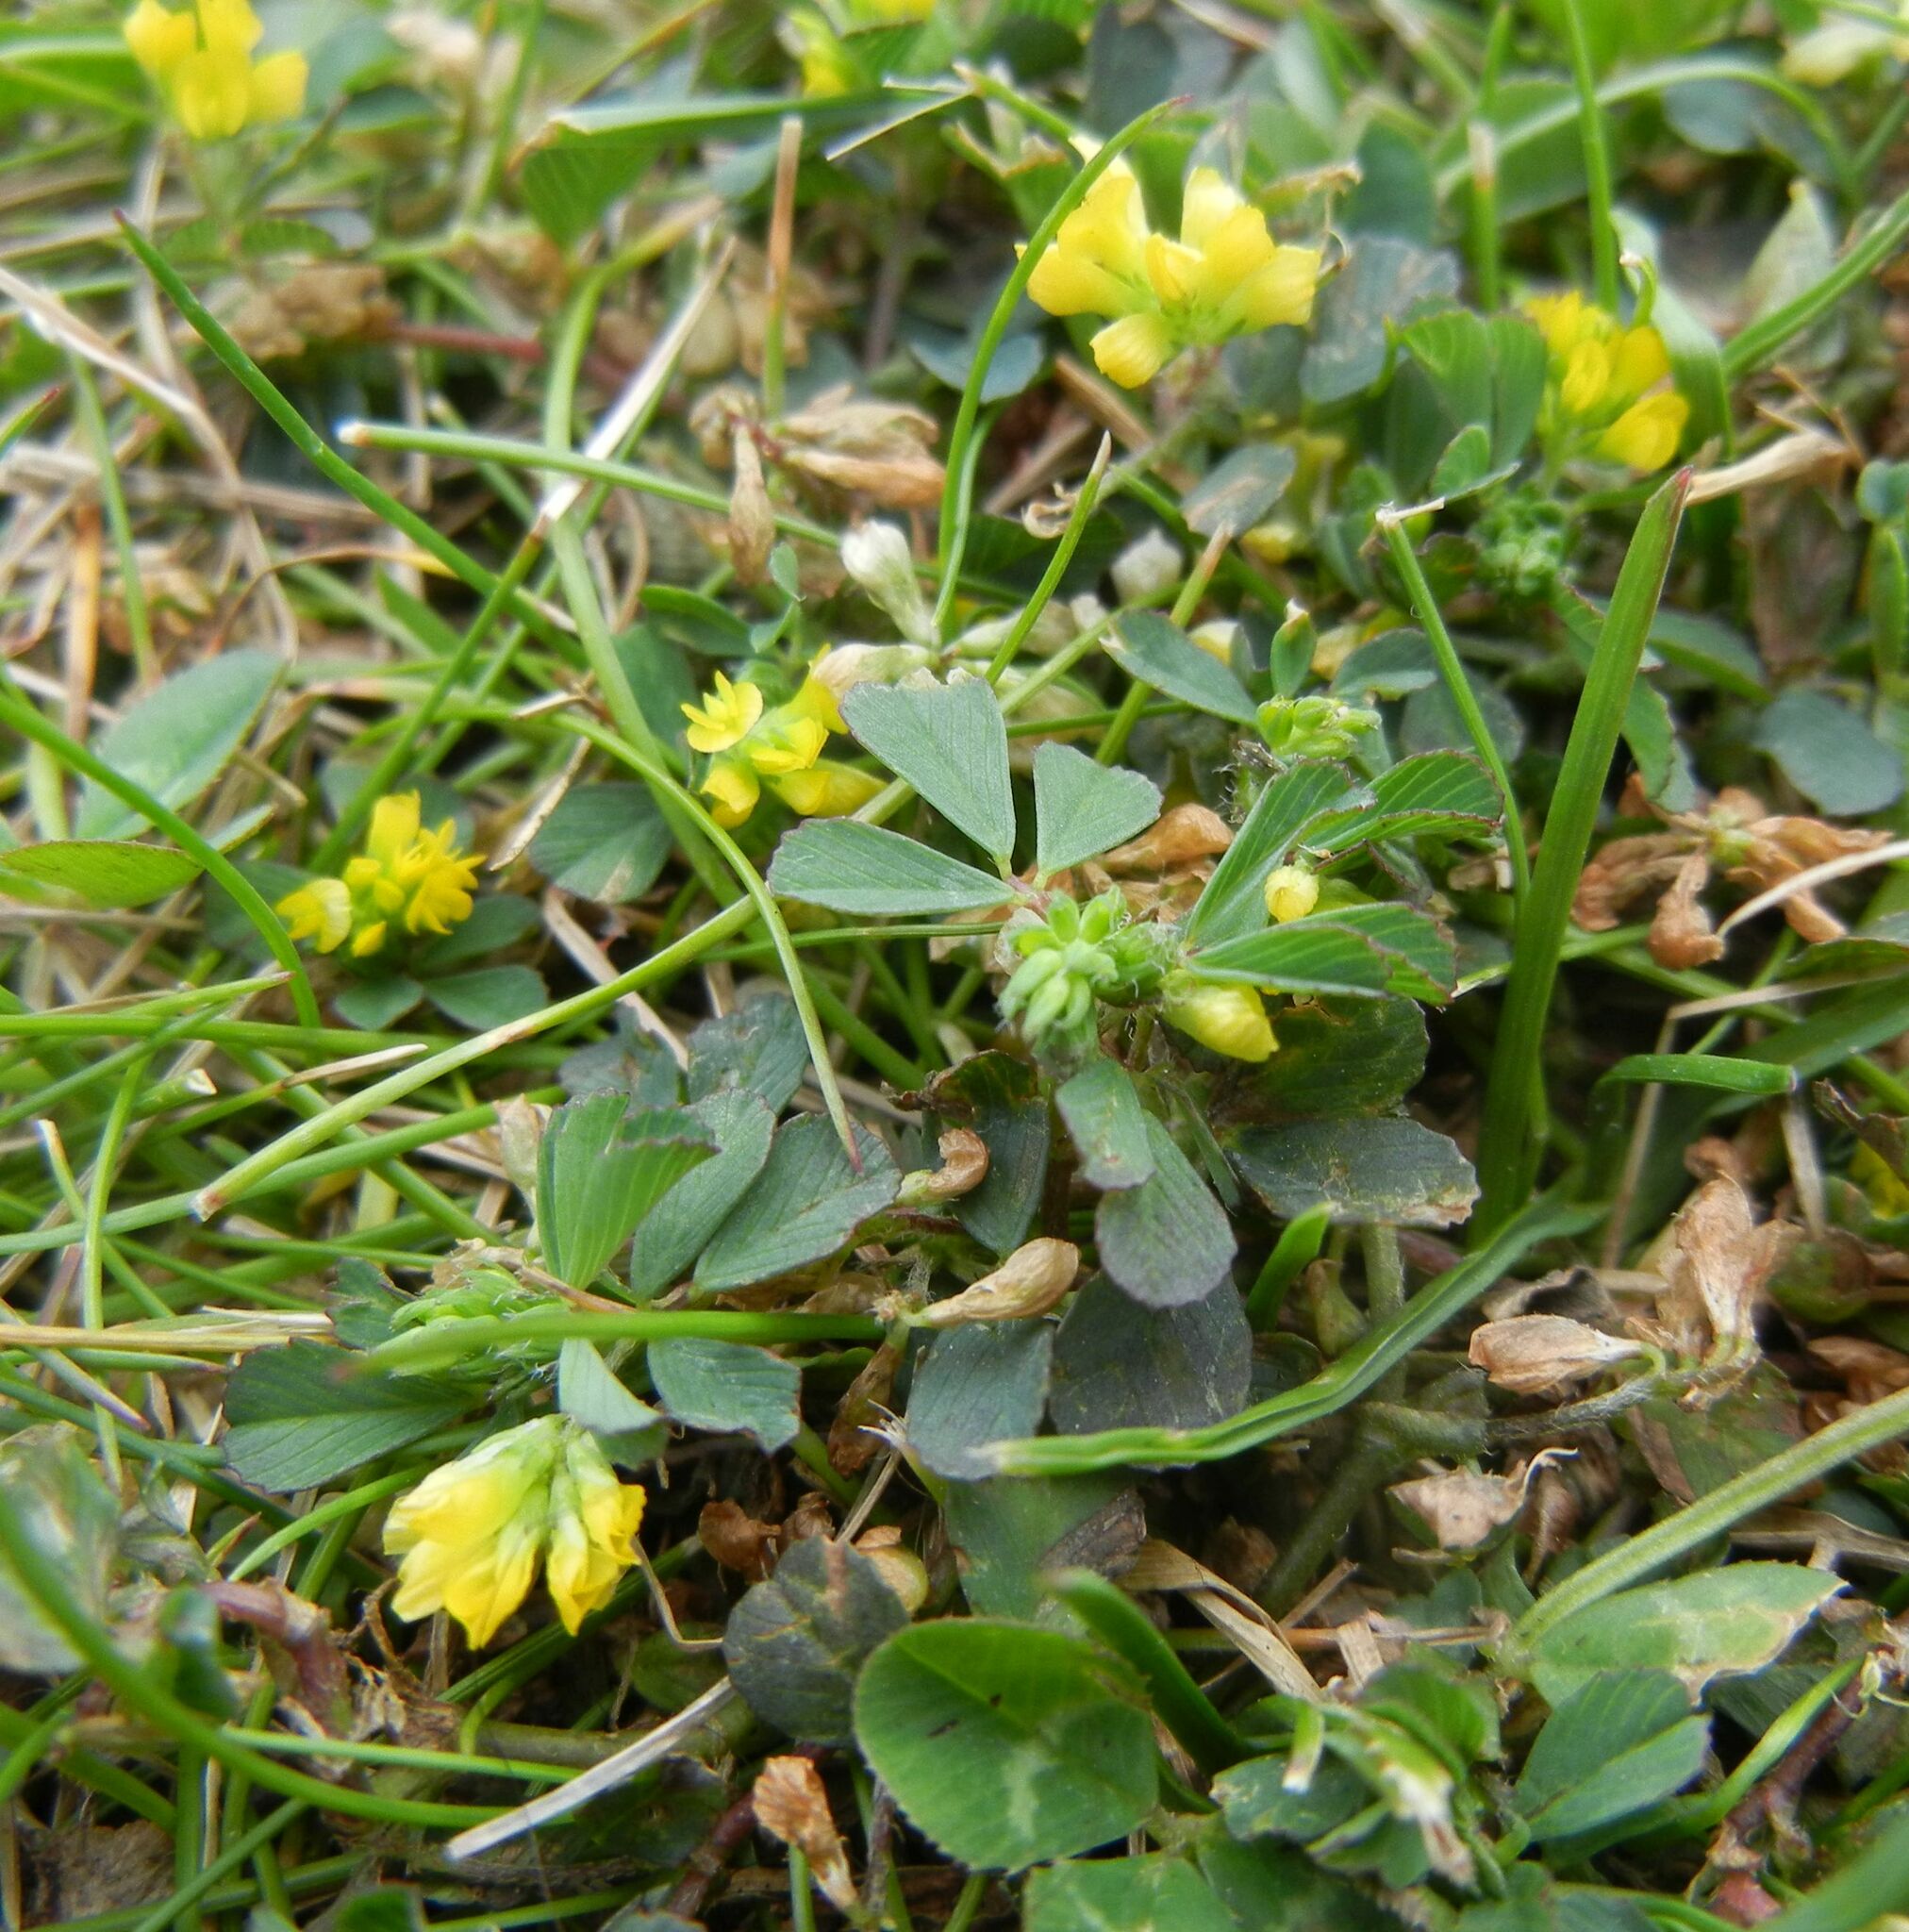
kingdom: Plantae
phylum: Tracheophyta
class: Magnoliopsida
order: Fabales
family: Fabaceae
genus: Trifolium
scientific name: Trifolium dubium
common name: Suckling clover
